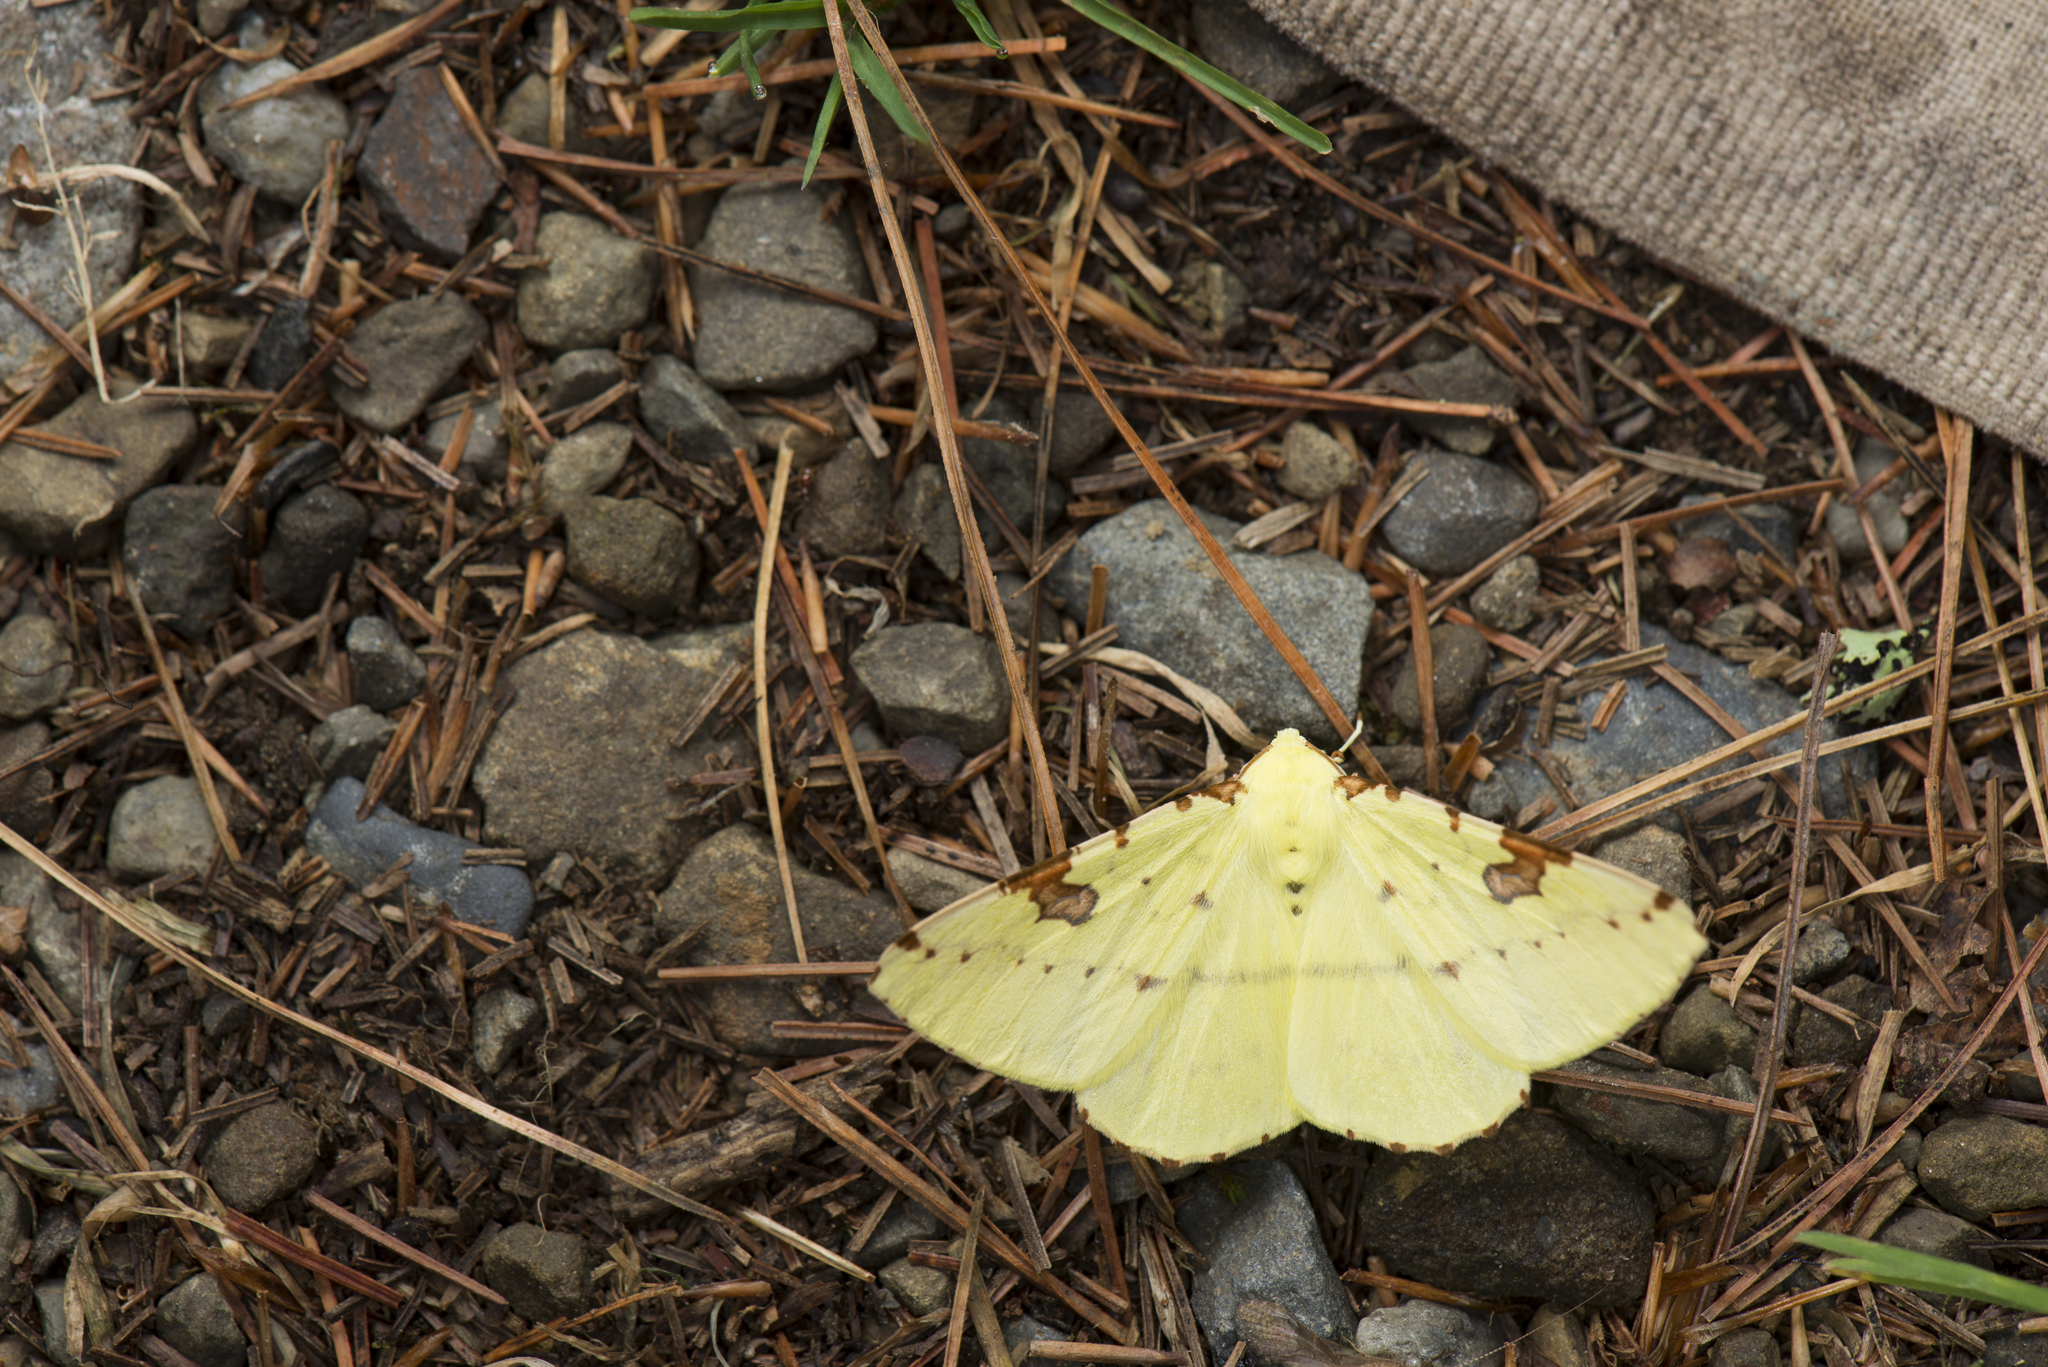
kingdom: Animalia
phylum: Arthropoda
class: Insecta
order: Lepidoptera
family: Geometridae
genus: Opisthograptis
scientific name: Opisthograptis punctilineata
